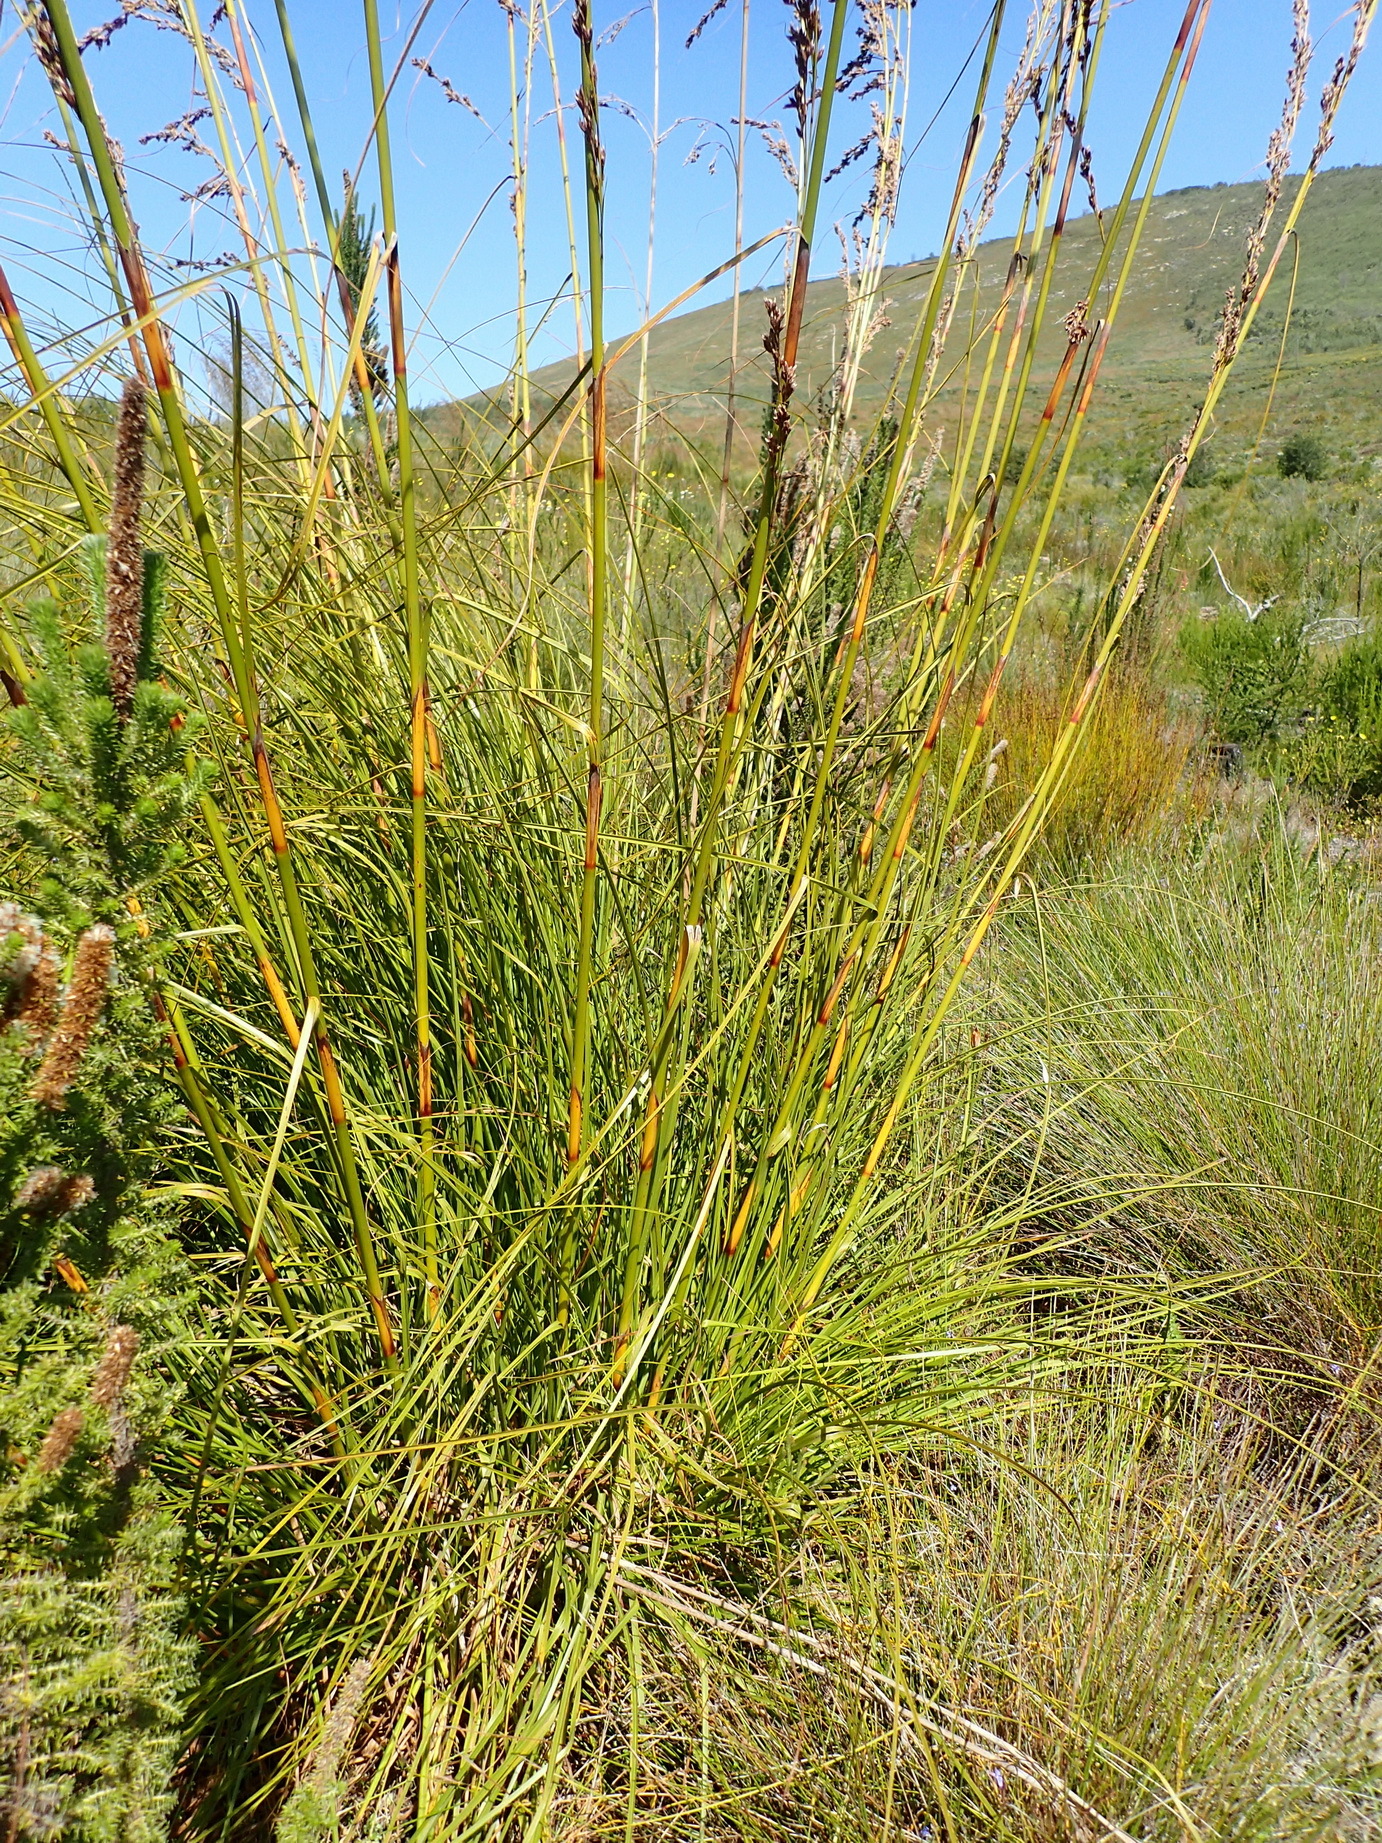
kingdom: Plantae
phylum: Tracheophyta
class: Liliopsida
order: Poales
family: Cyperaceae
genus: Tetraria
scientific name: Tetraria involucrata
